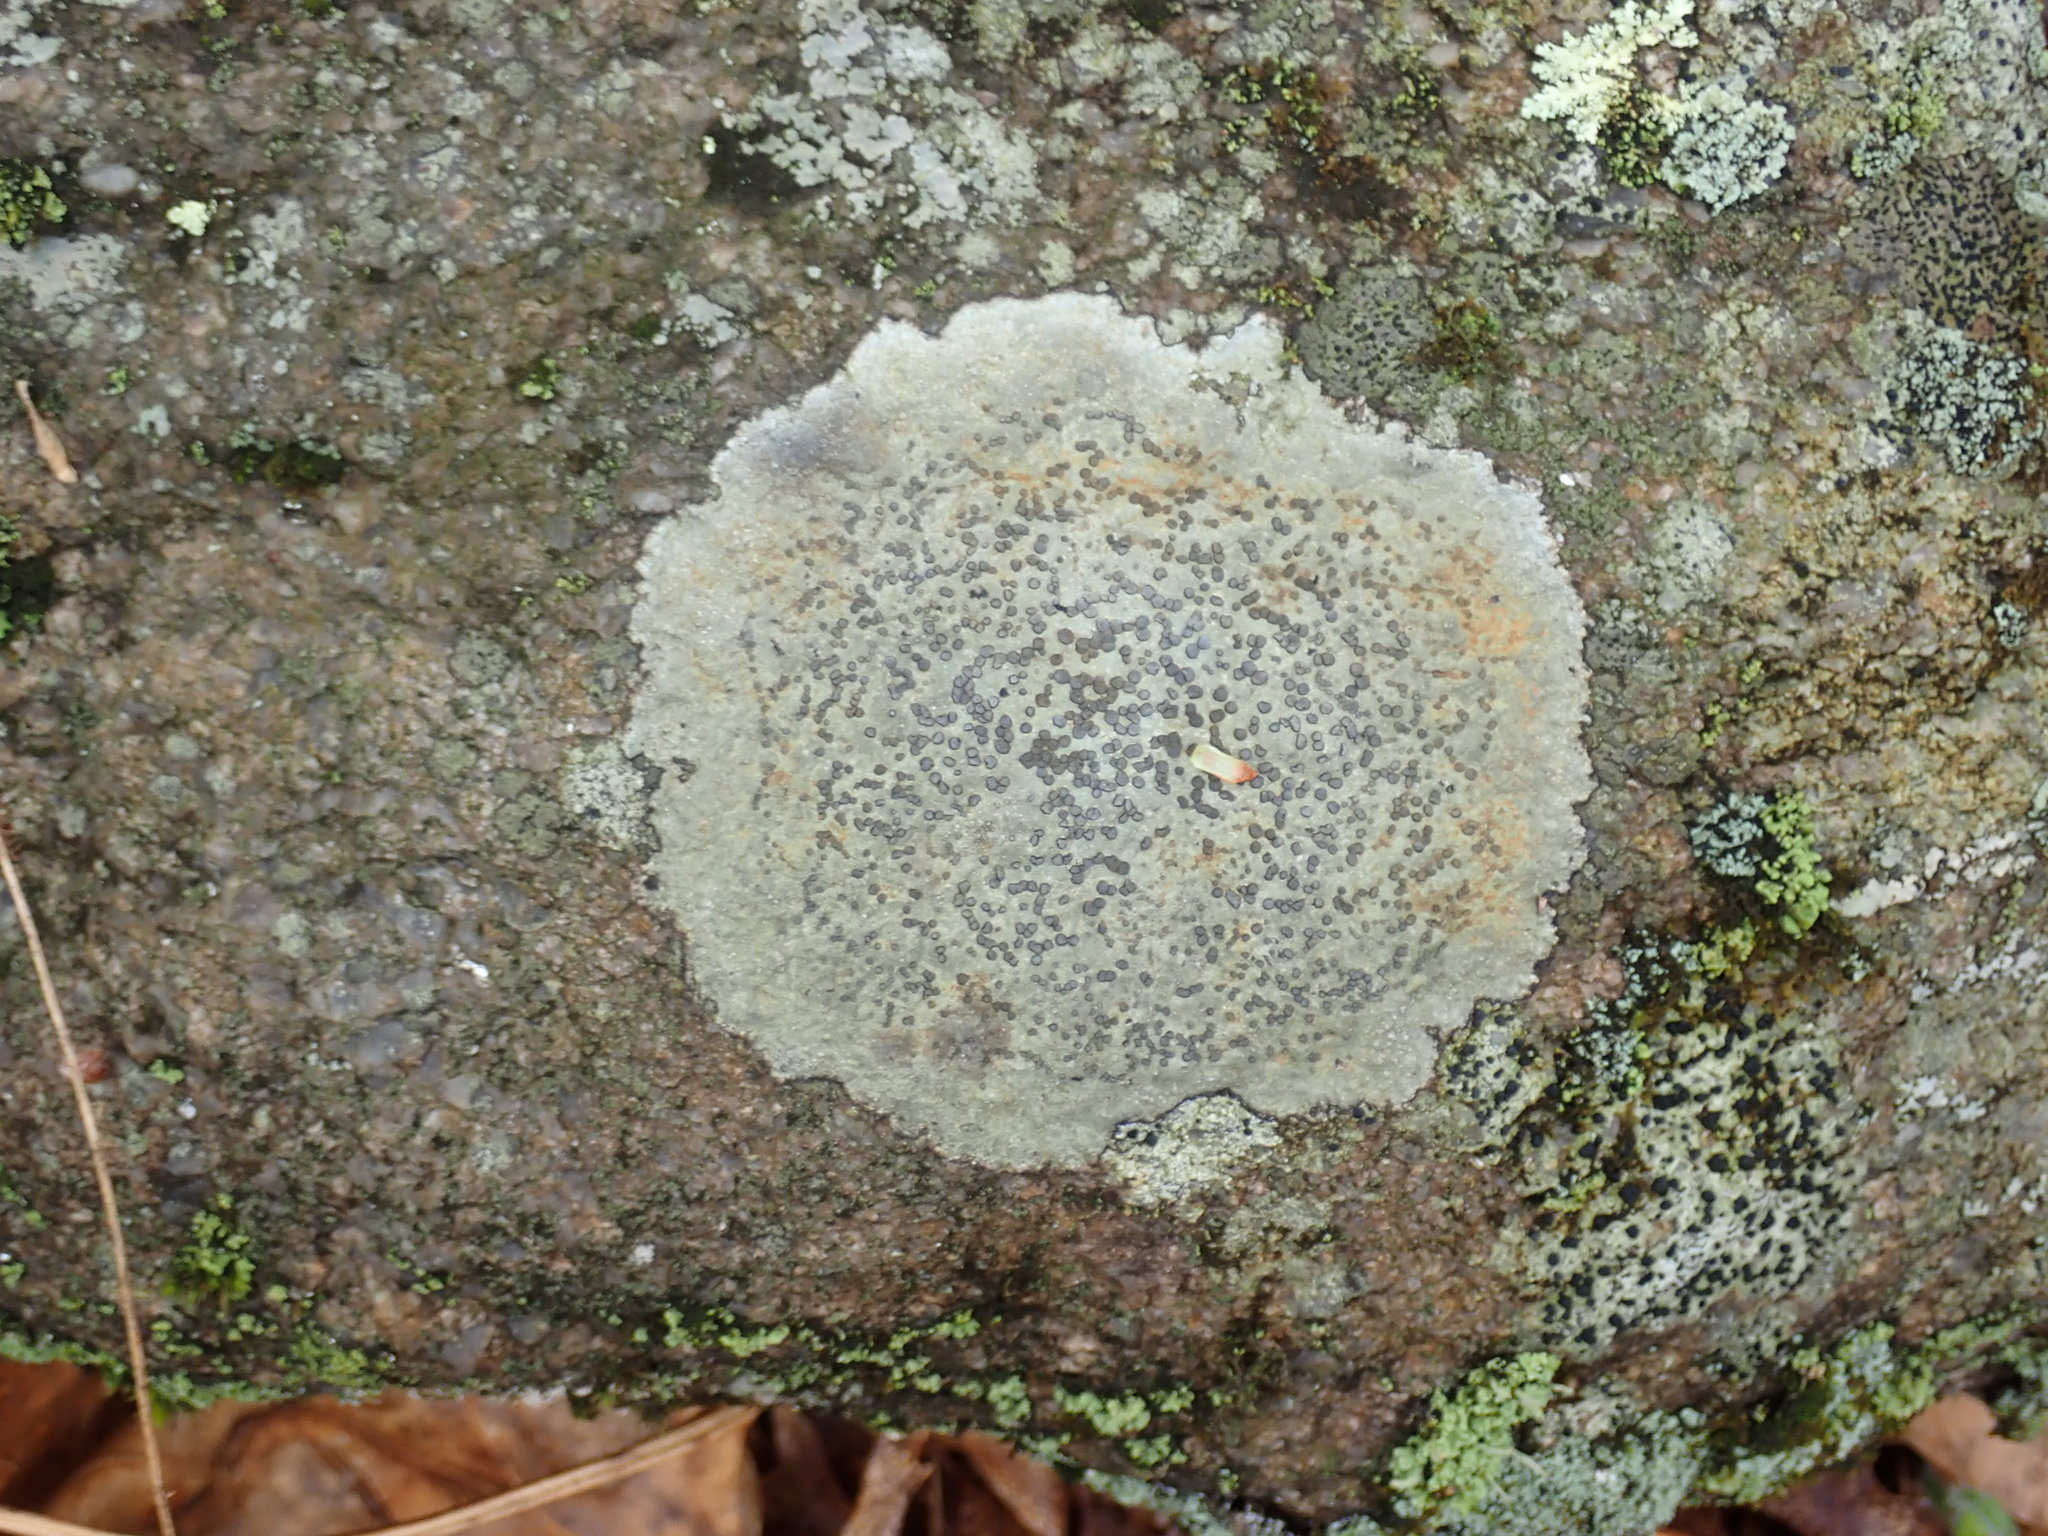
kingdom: Fungi
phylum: Ascomycota
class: Lecanoromycetes
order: Lecideales
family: Lecideaceae
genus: Porpidia
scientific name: Porpidia albocaerulescens
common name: Smokey-eyed boulder lichen
